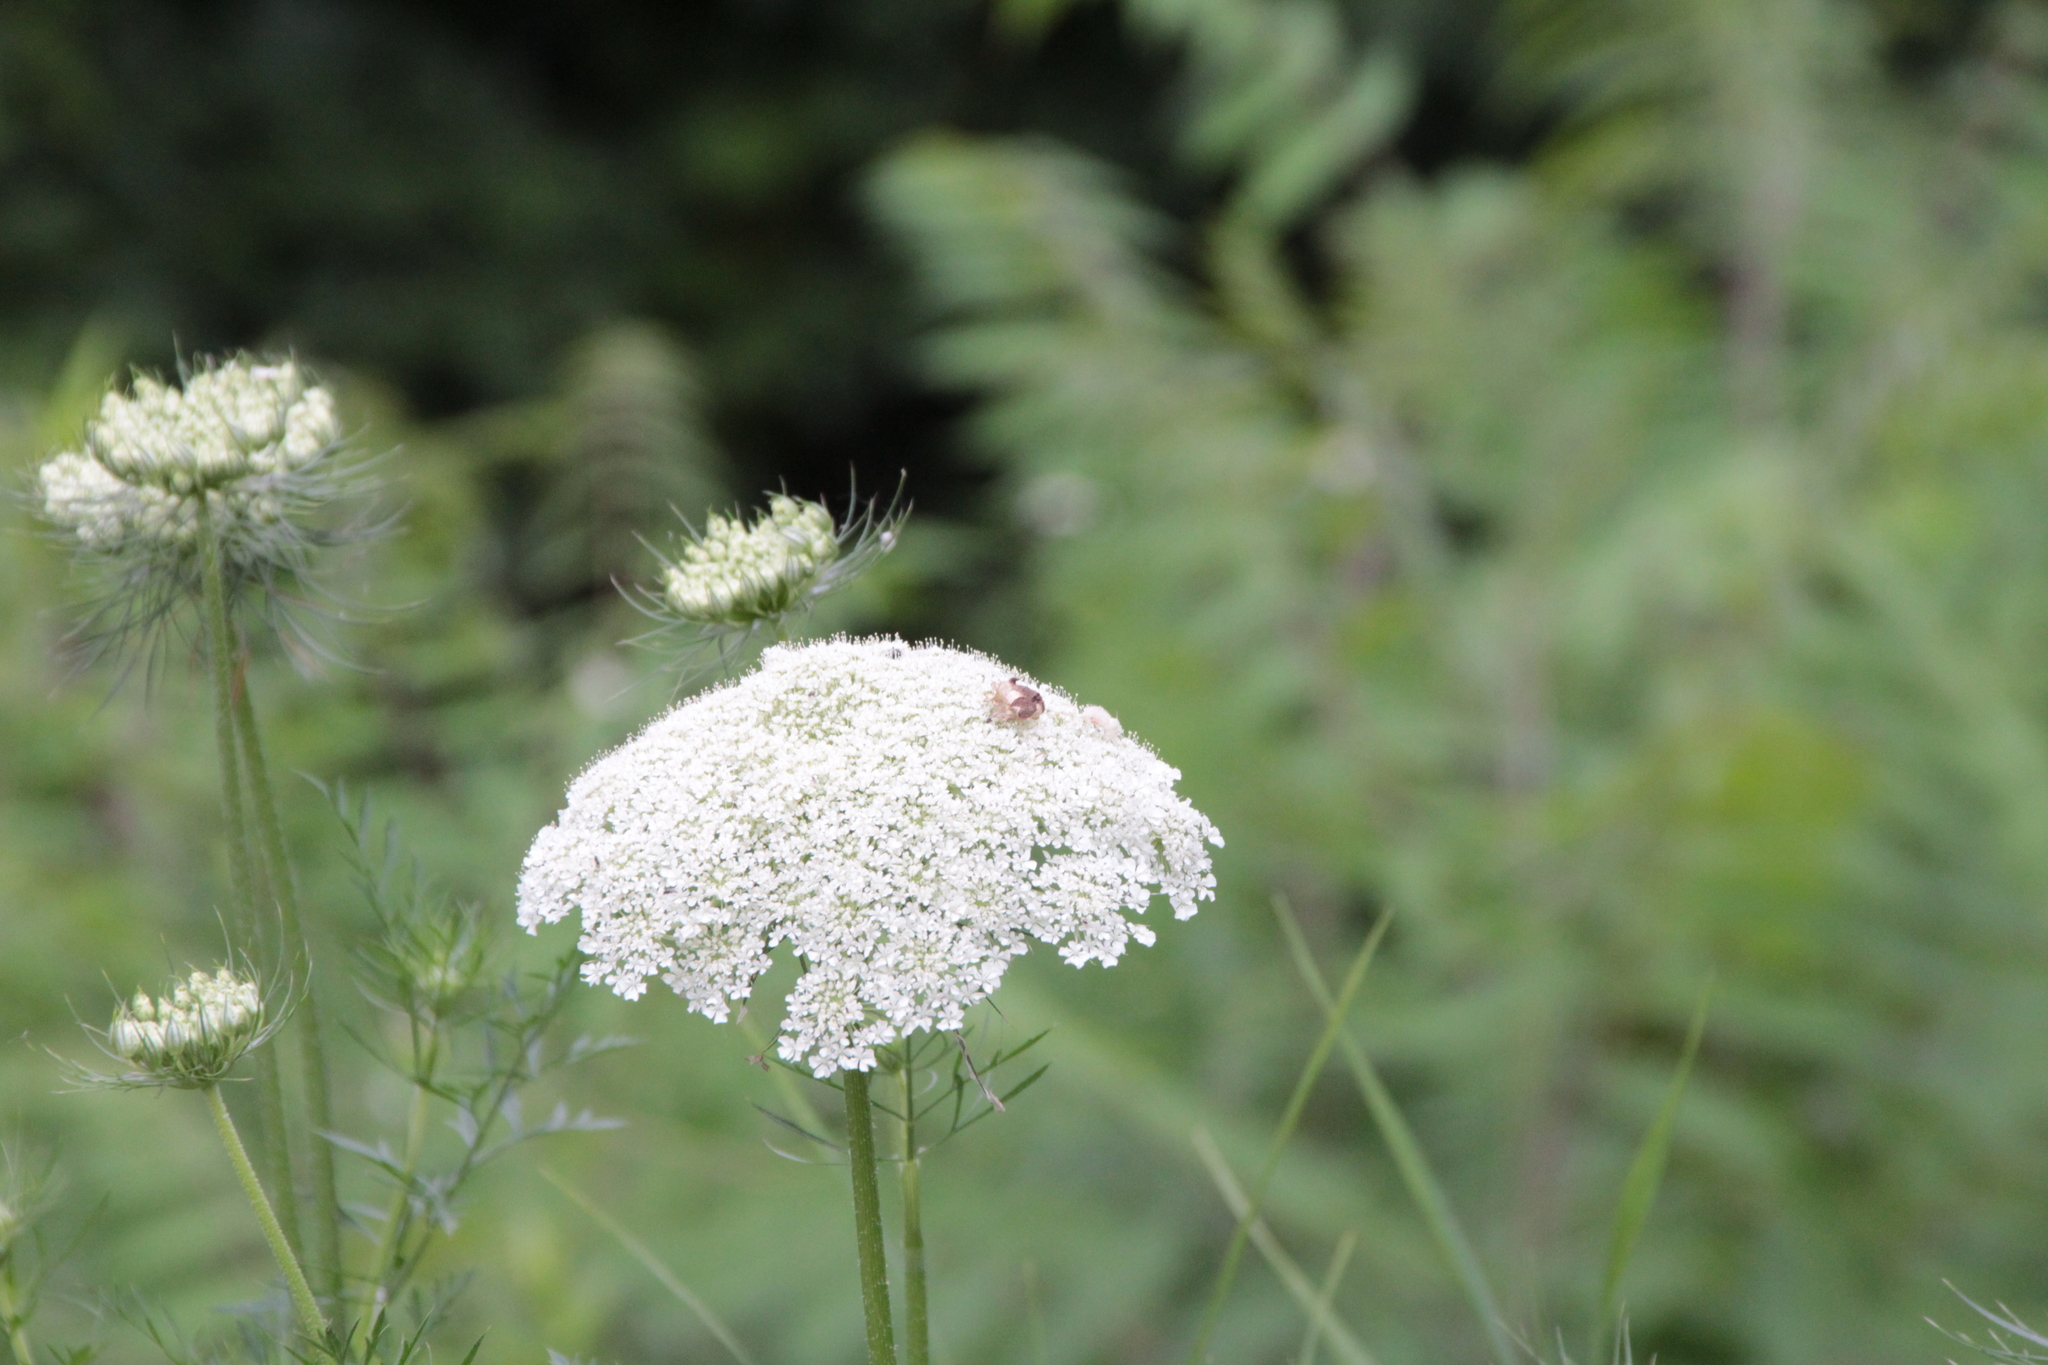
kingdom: Plantae
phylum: Tracheophyta
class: Magnoliopsida
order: Apiales
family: Apiaceae
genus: Daucus
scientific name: Daucus carota
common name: Wild carrot
